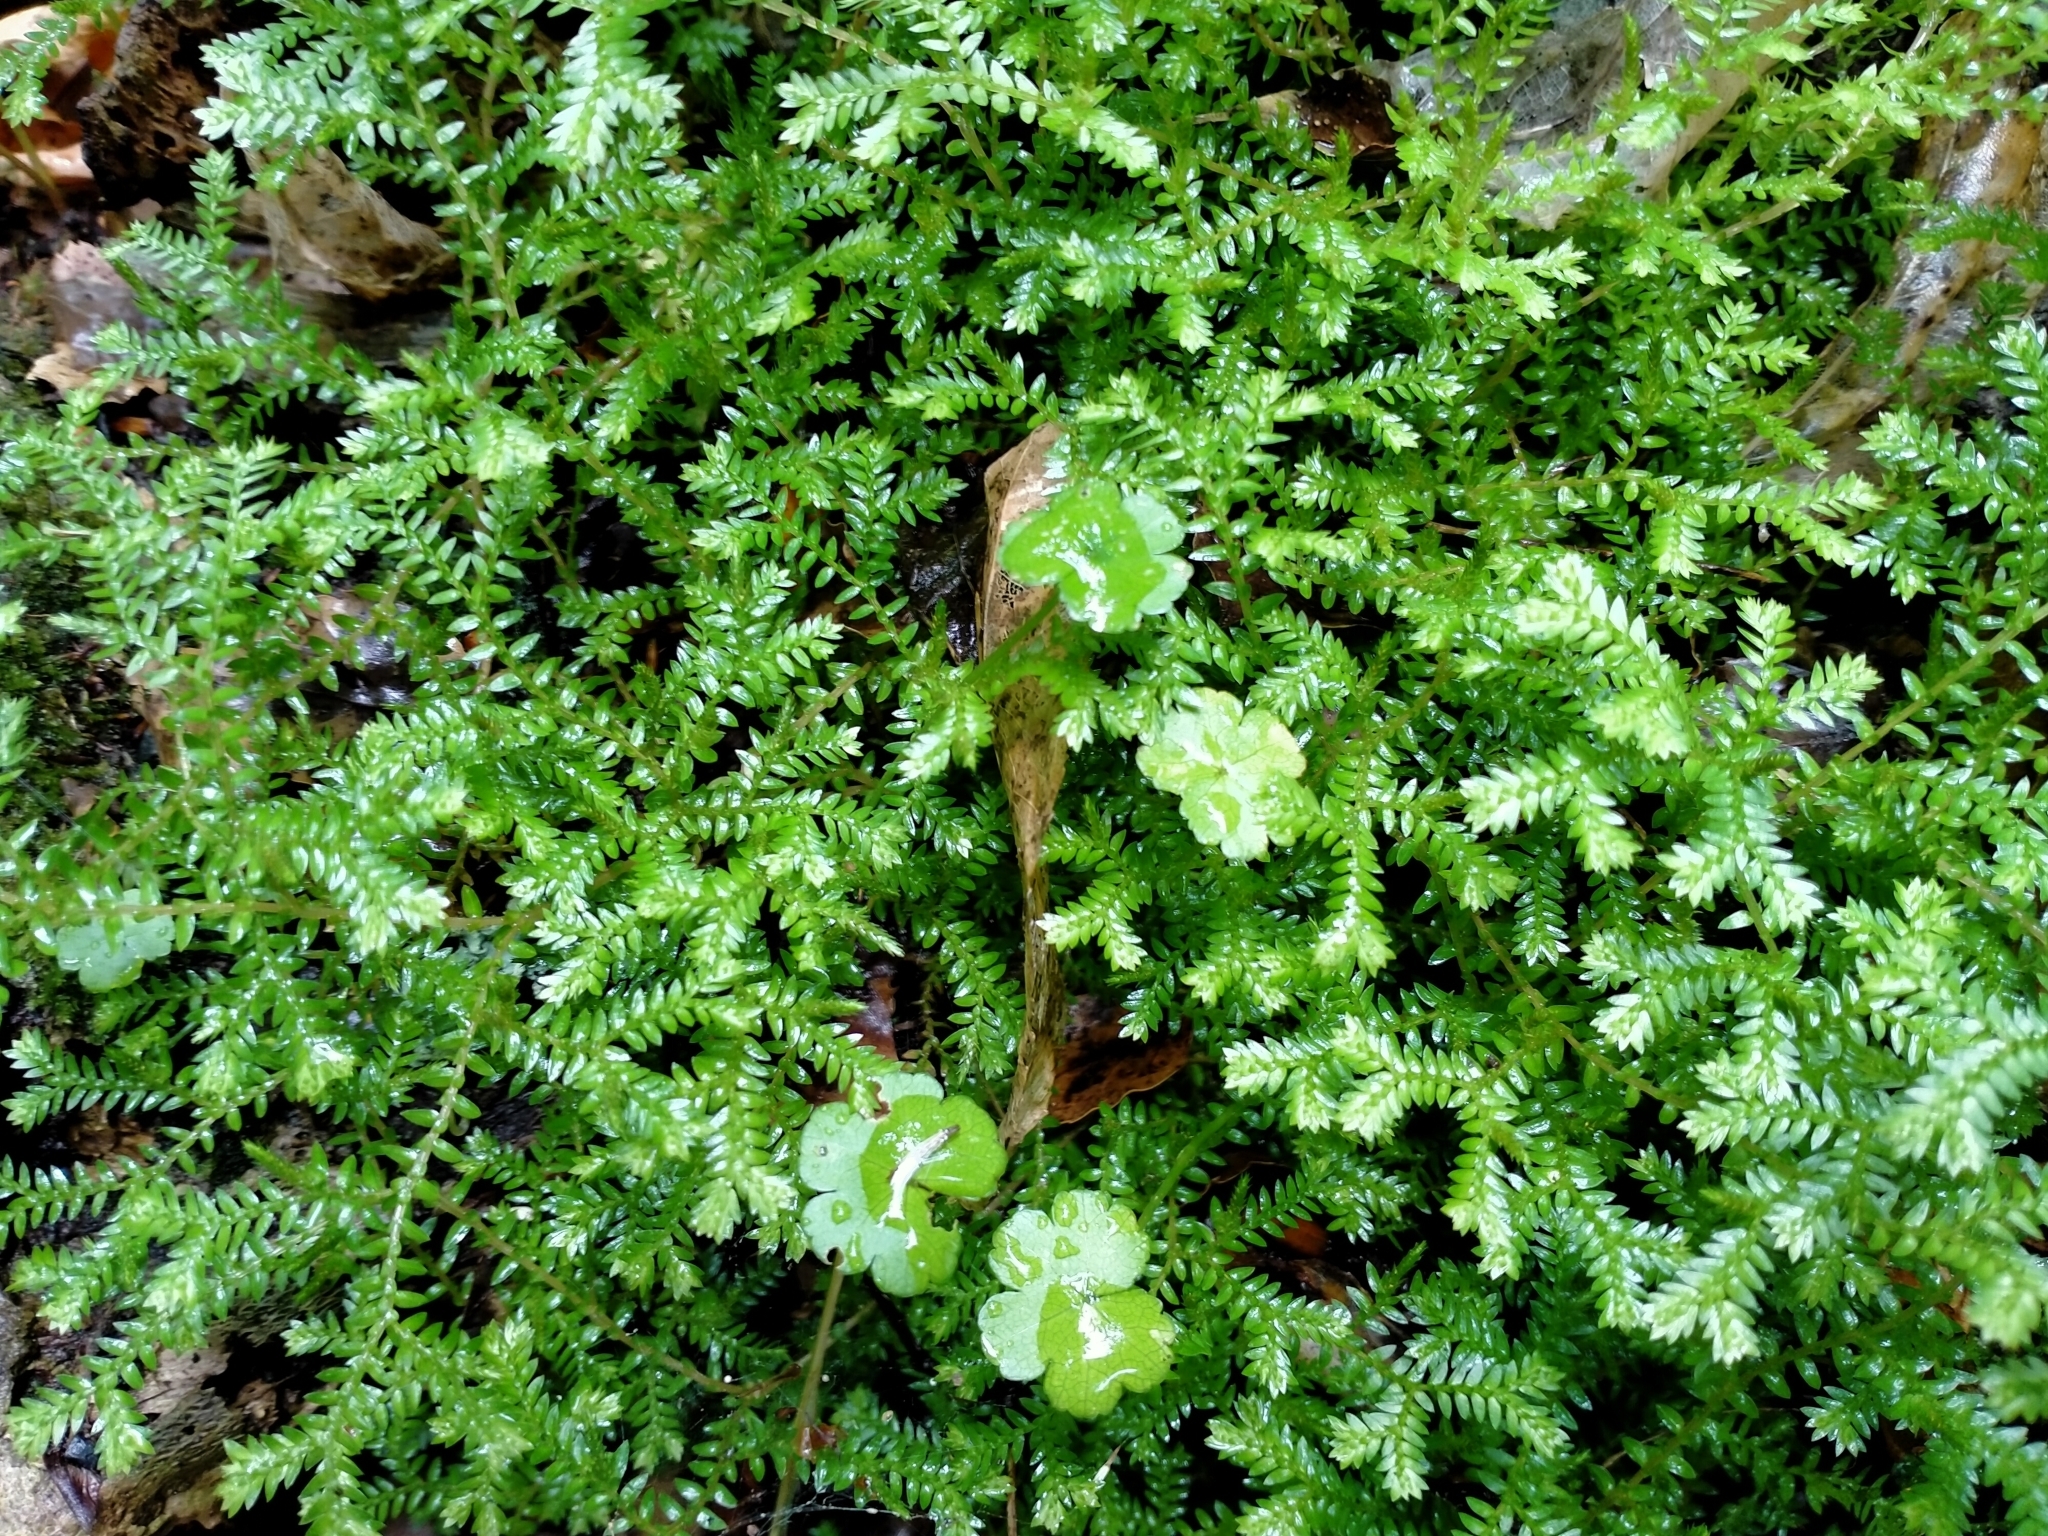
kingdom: Plantae
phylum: Tracheophyta
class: Lycopodiopsida
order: Selaginellales
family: Selaginellaceae
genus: Selaginella
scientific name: Selaginella kraussiana
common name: Krauss' spikemoss
